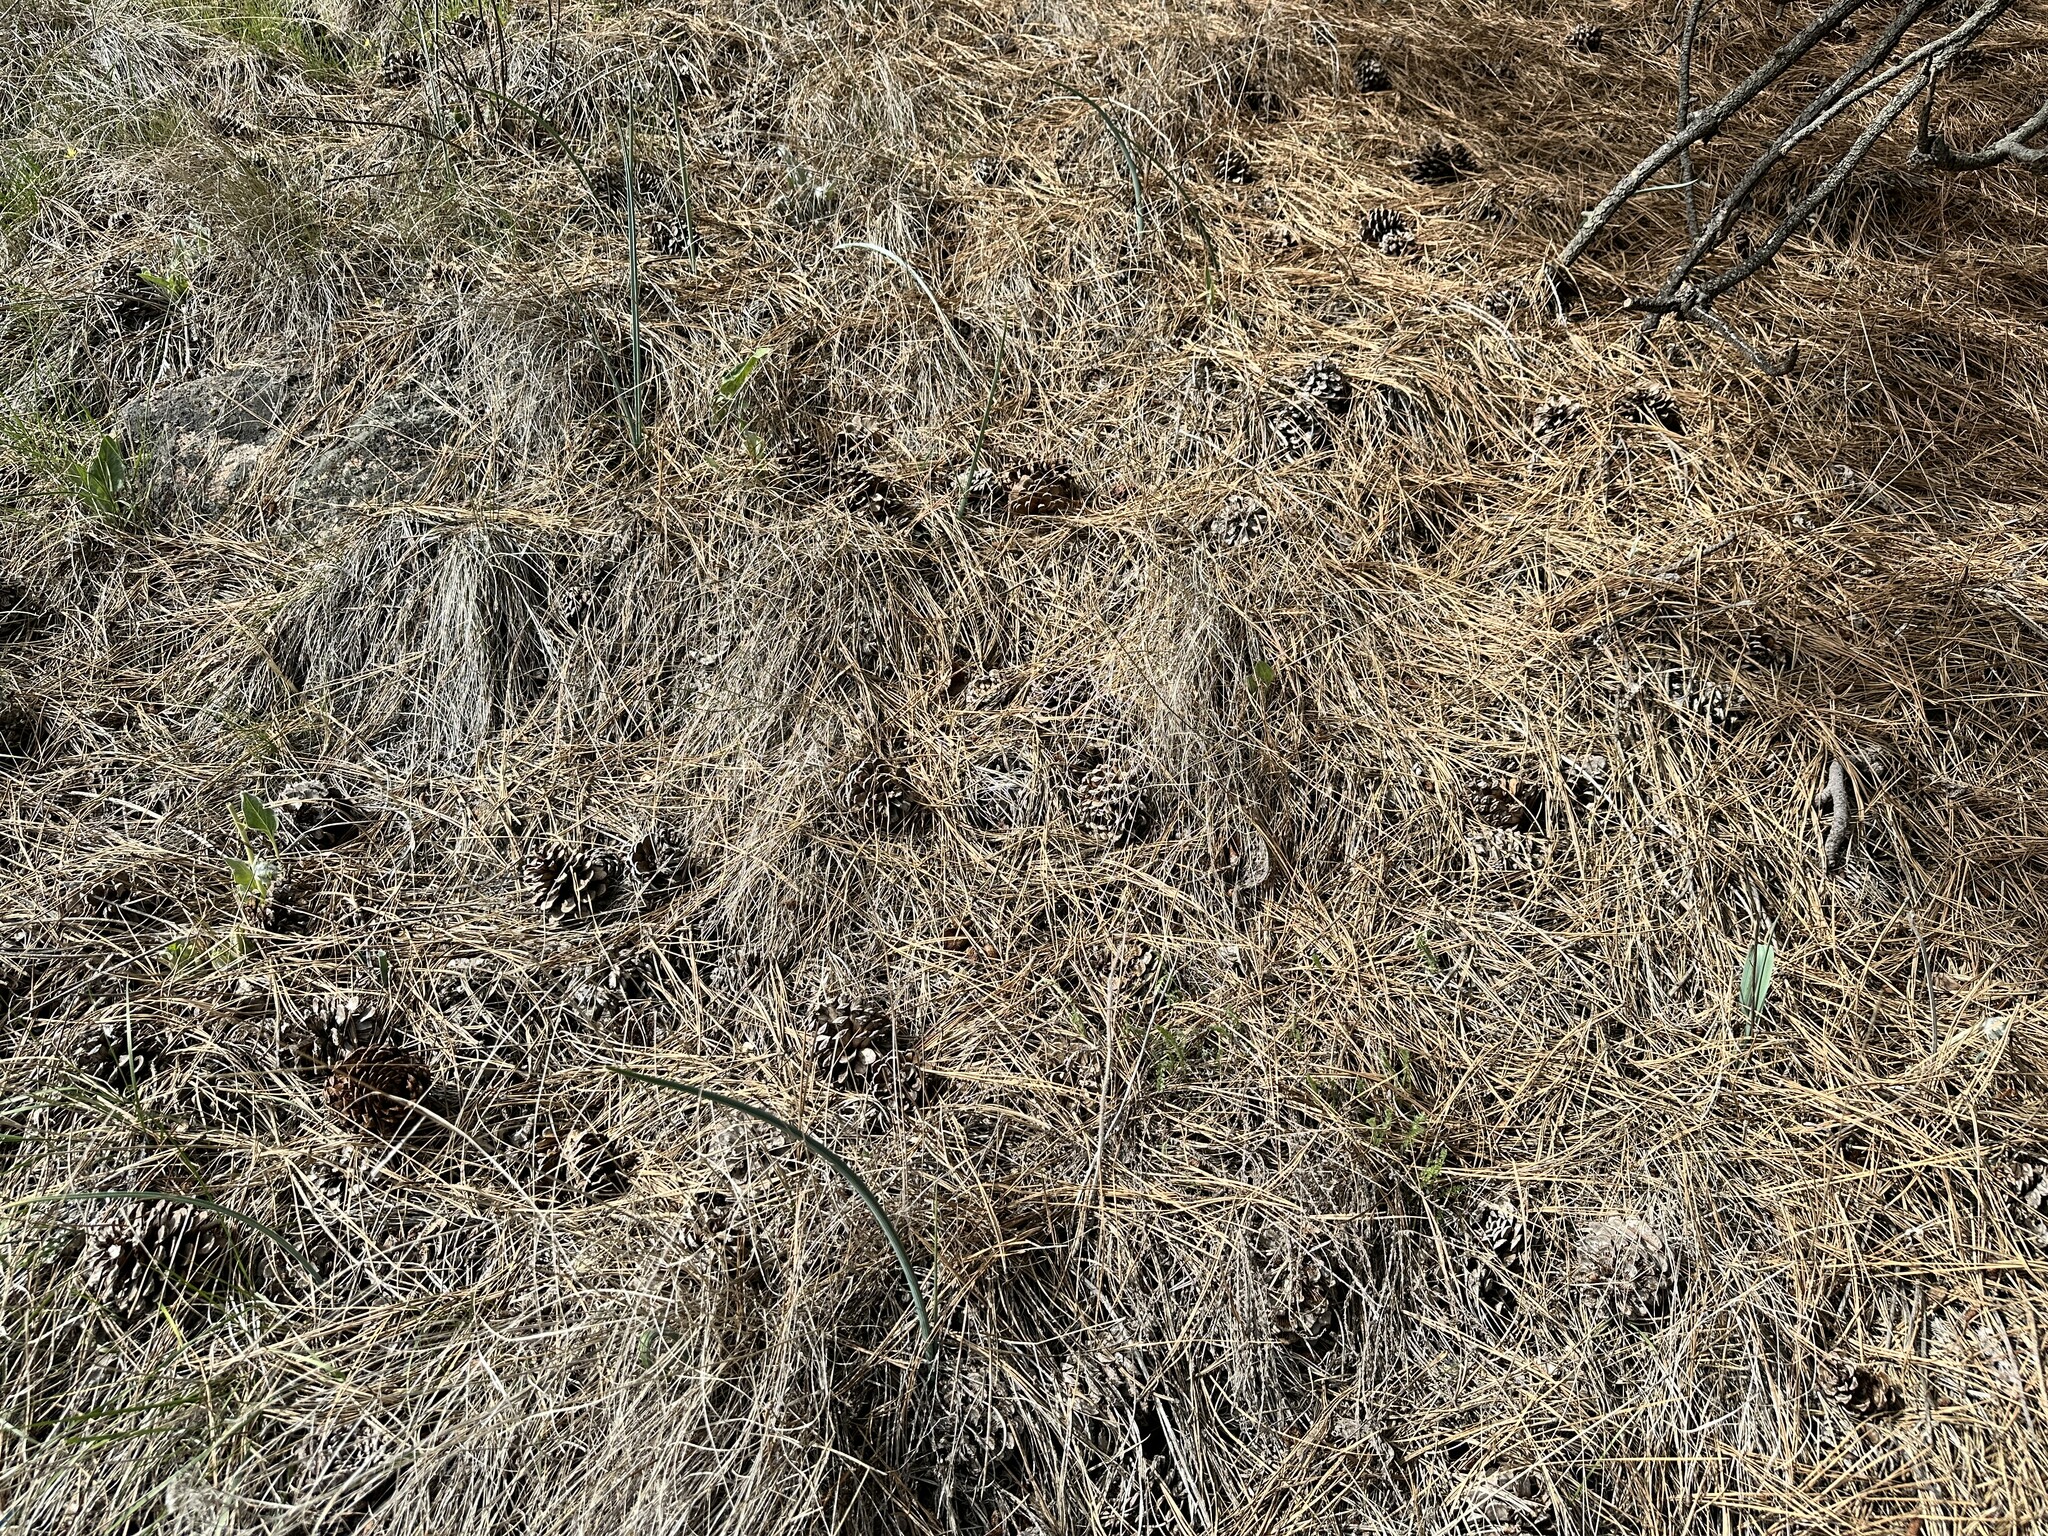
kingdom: Plantae
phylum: Tracheophyta
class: Liliopsida
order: Liliales
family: Liliaceae
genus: Calochortus
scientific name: Calochortus macrocarpus
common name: Green-band mariposa lily
